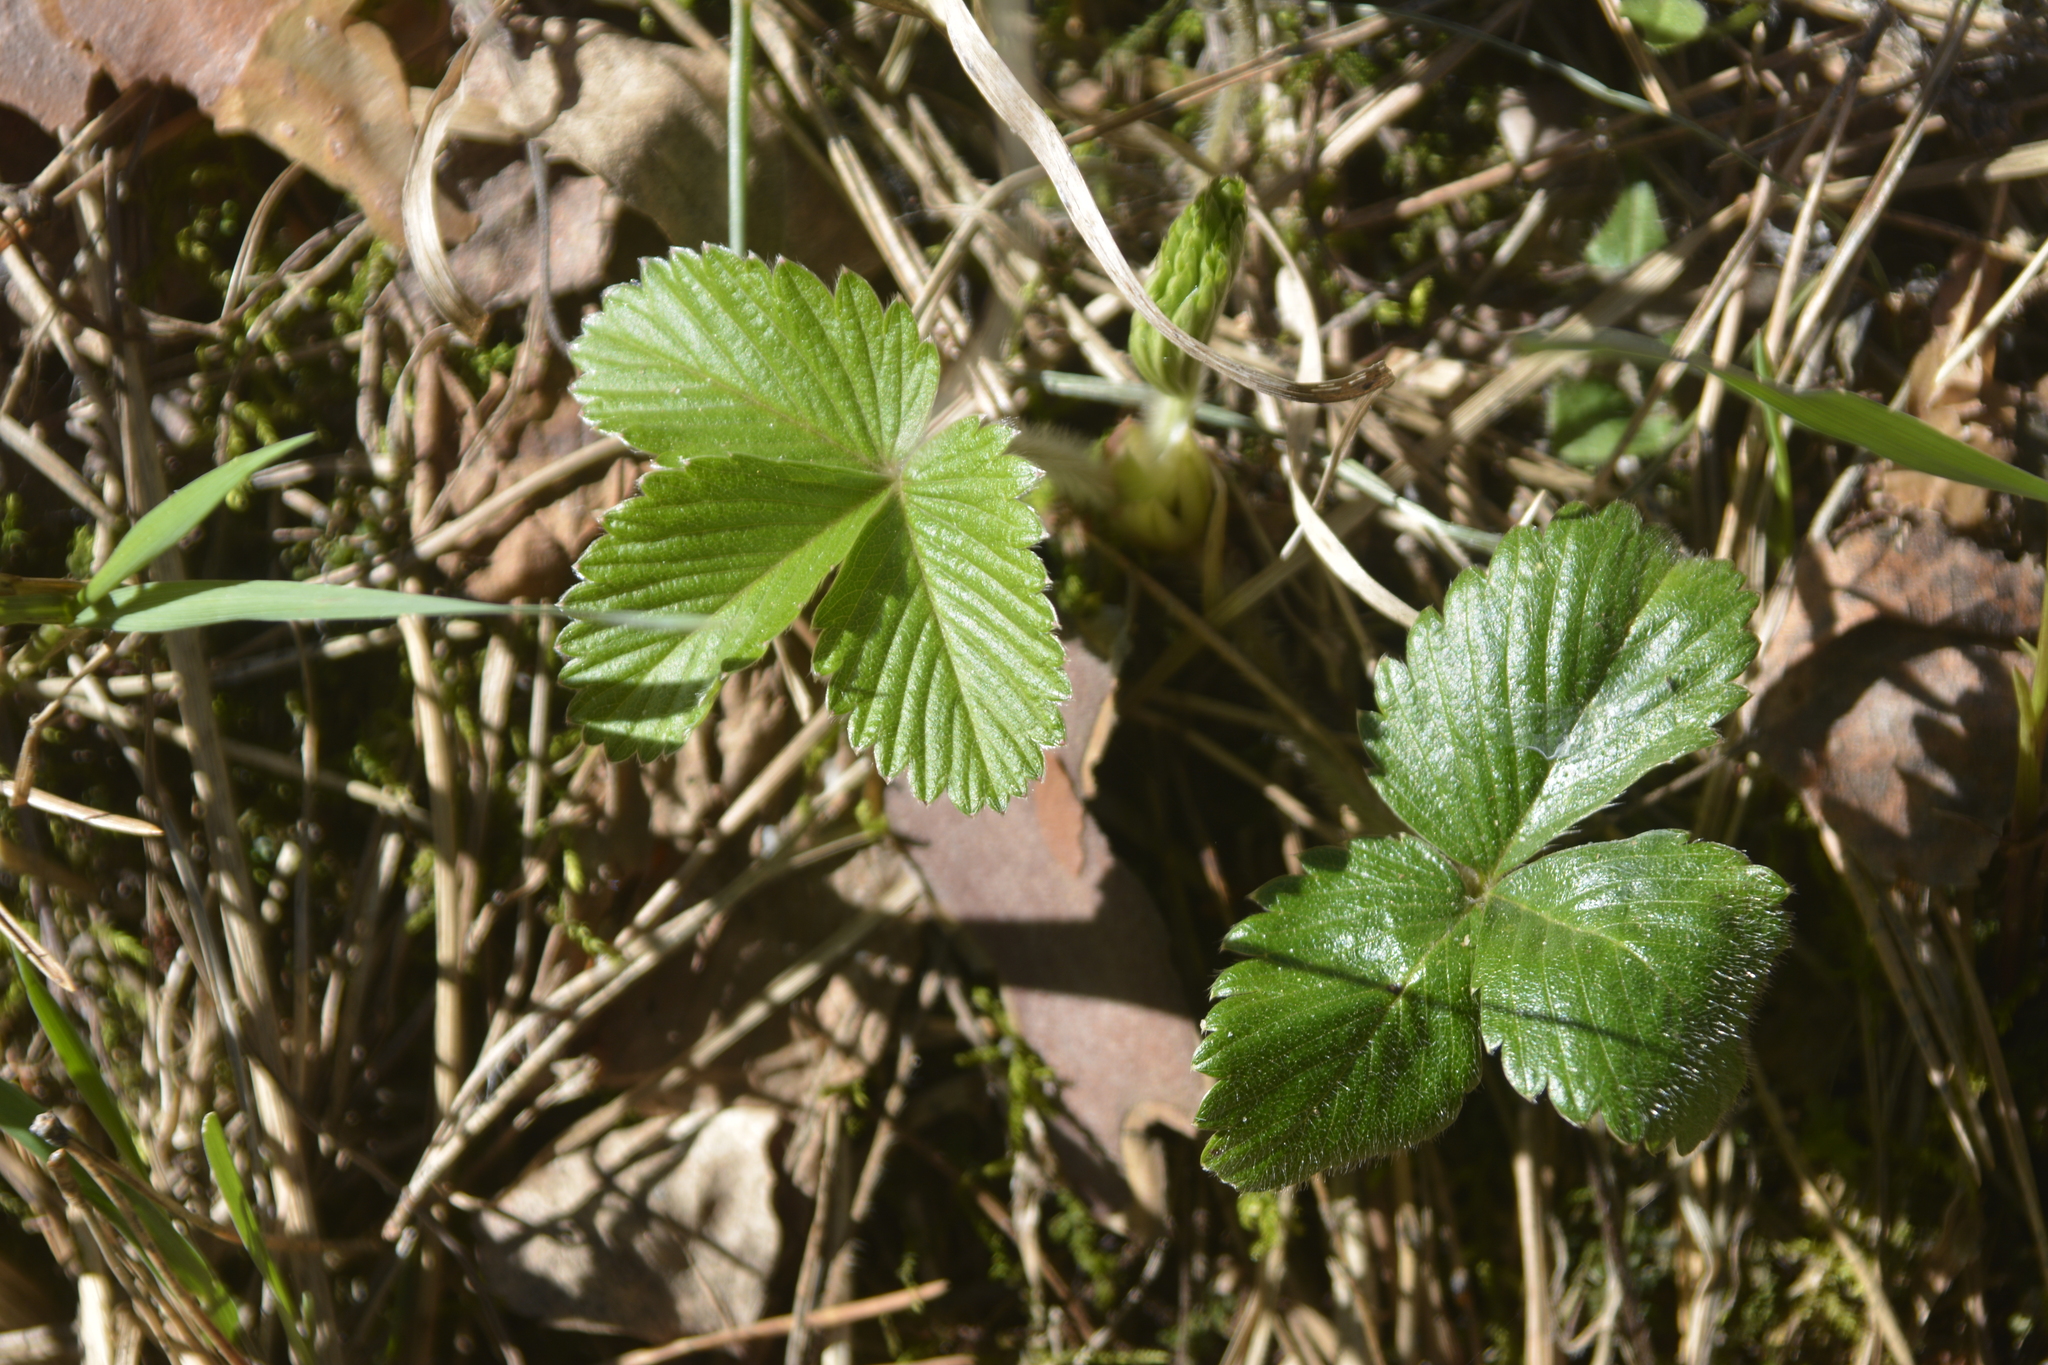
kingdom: Plantae
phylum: Tracheophyta
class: Magnoliopsida
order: Rosales
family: Rosaceae
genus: Fragaria
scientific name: Fragaria vesca
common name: Wild strawberry
